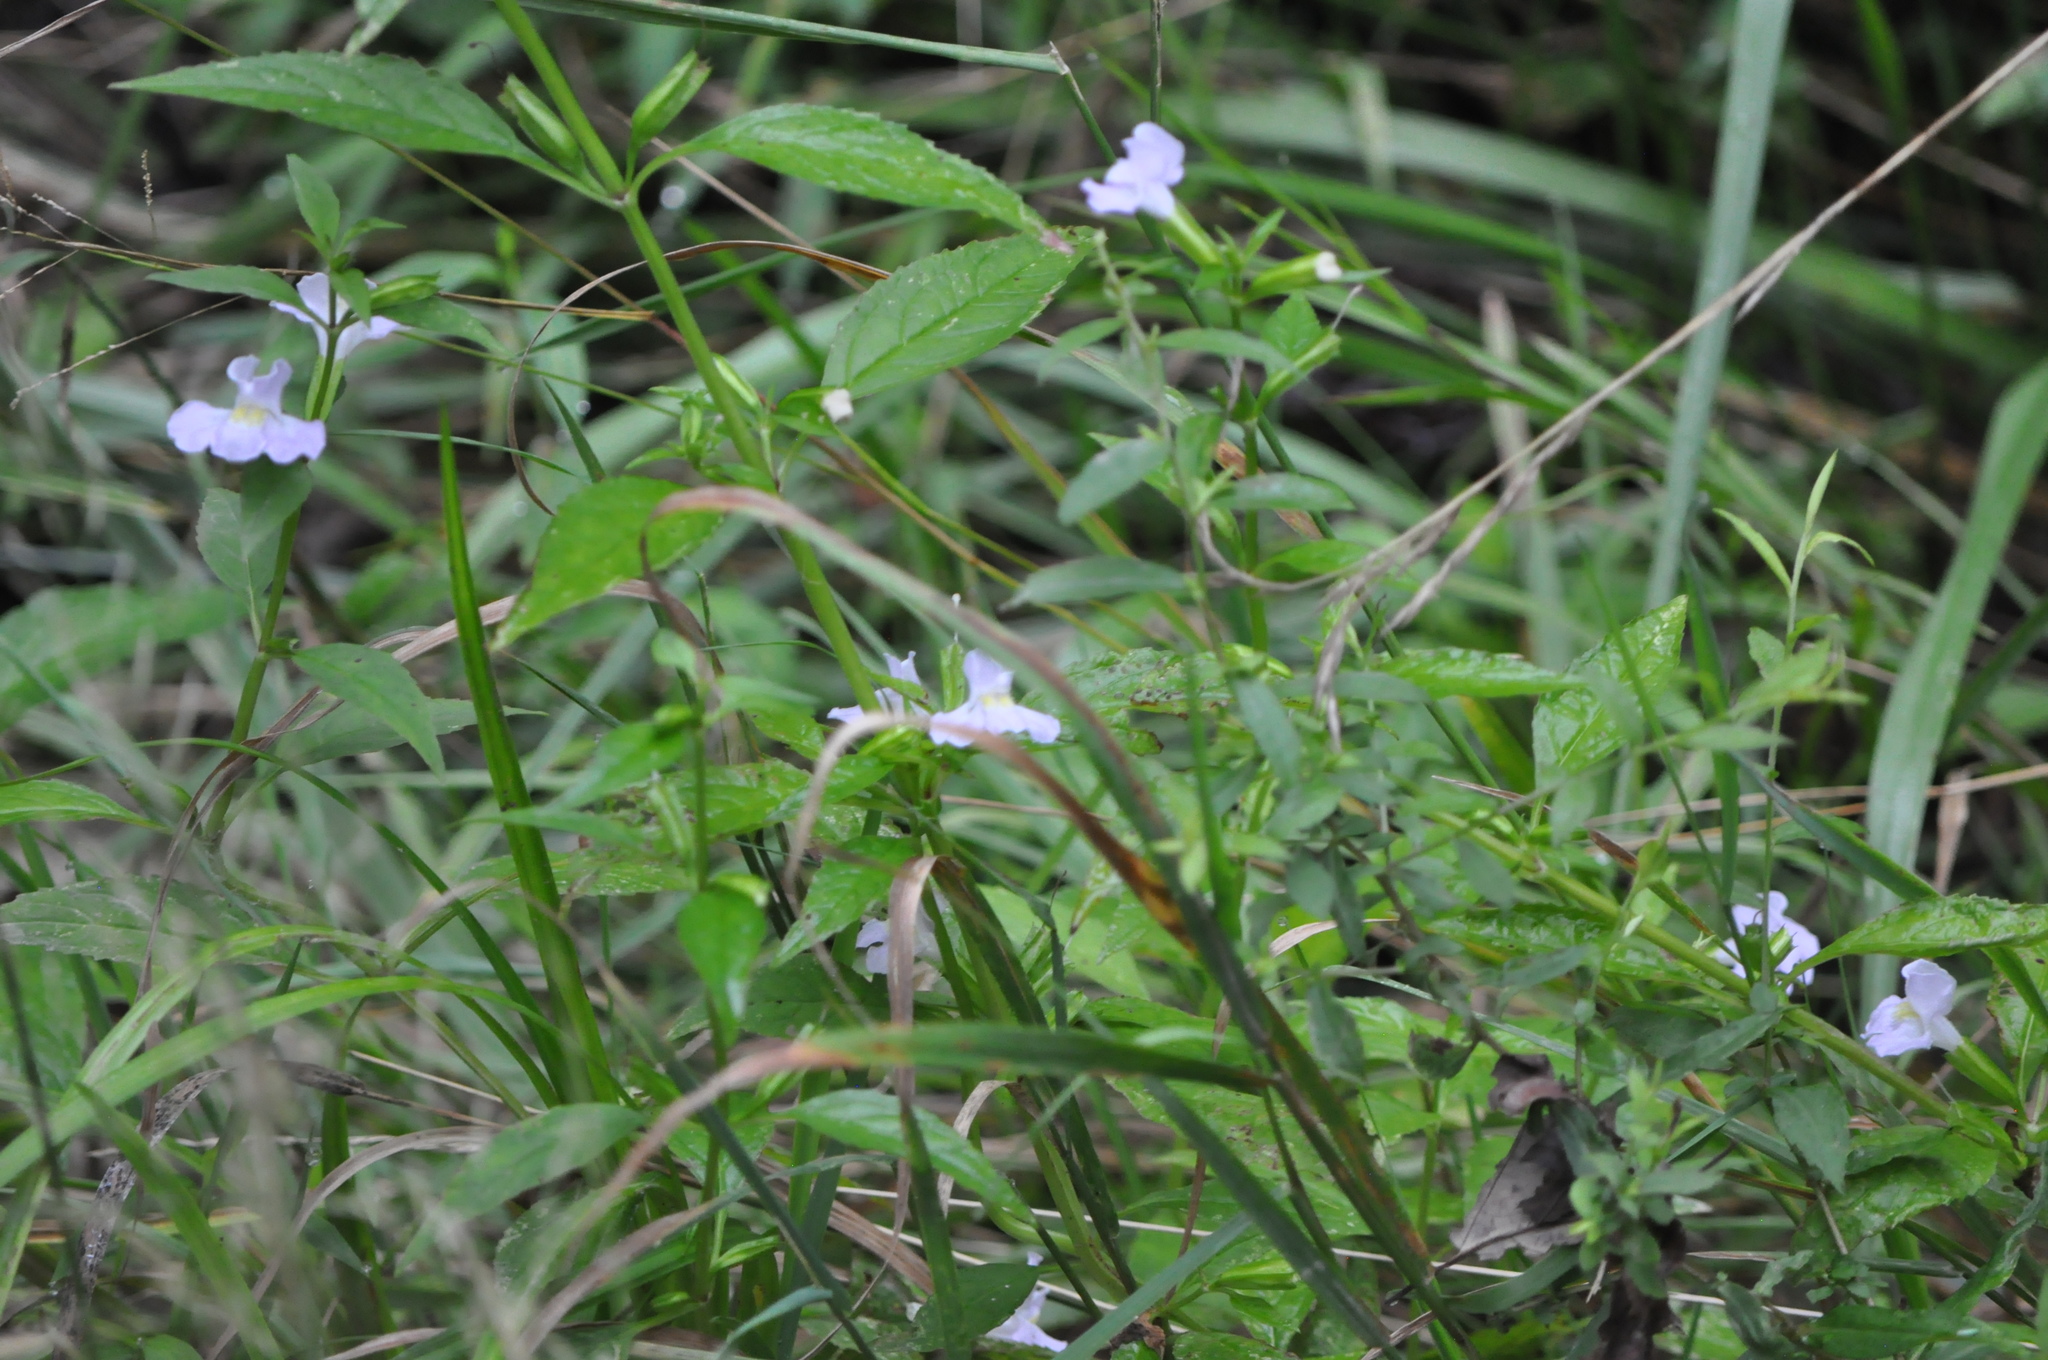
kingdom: Plantae
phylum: Tracheophyta
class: Magnoliopsida
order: Lamiales
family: Phrymaceae
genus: Mimulus
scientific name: Mimulus alatus
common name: Sharp-wing monkey-flower
